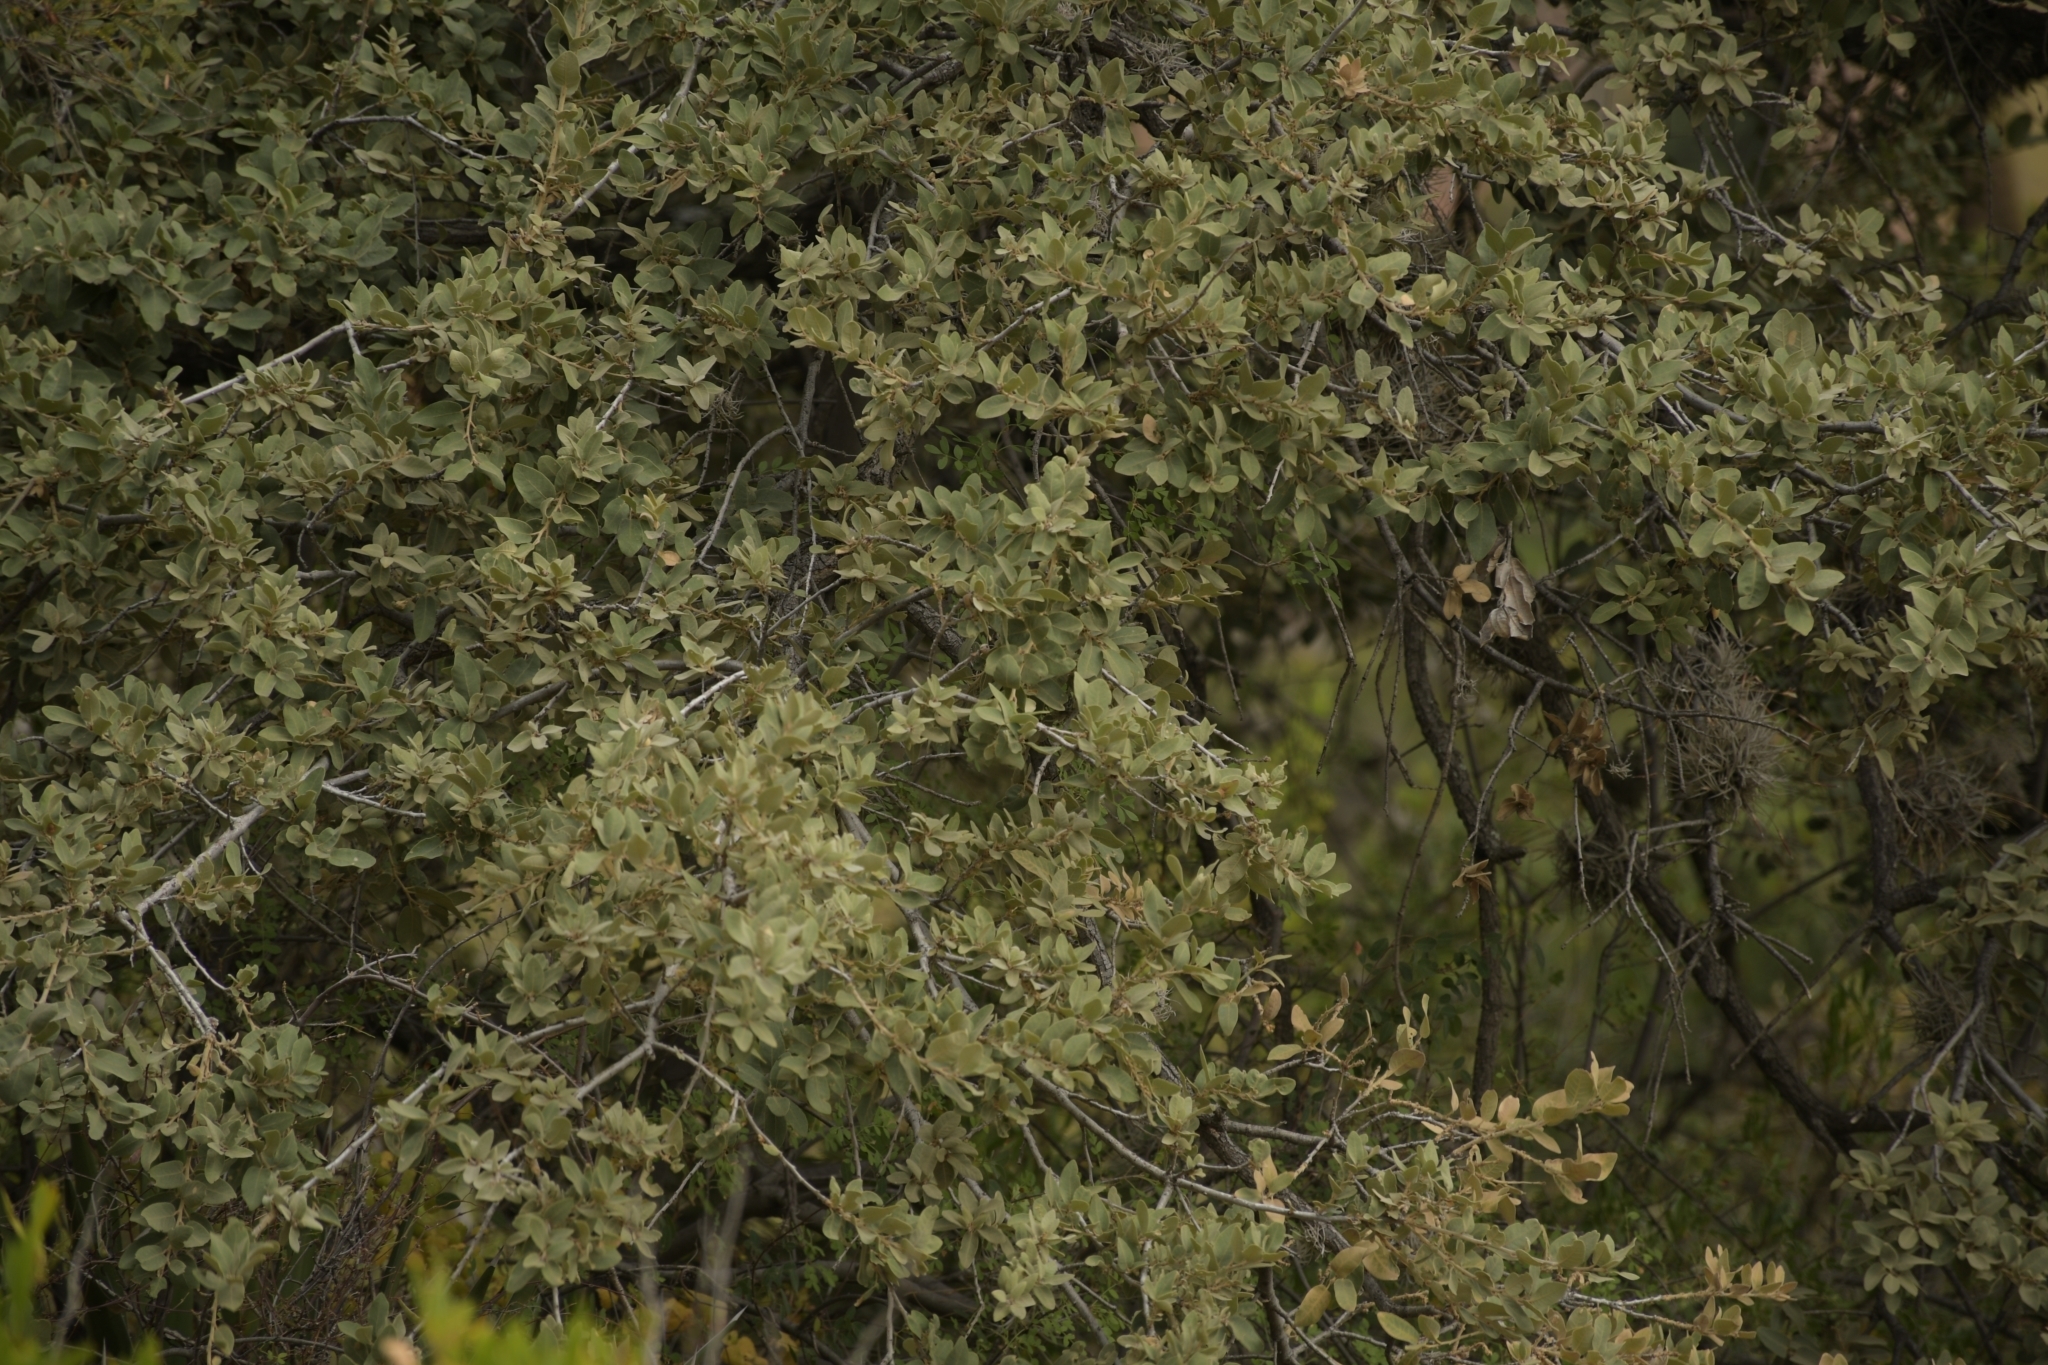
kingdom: Plantae
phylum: Tracheophyta
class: Magnoliopsida
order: Fagales
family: Fagaceae
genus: Quercus
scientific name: Quercus grisea
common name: Gray oak
